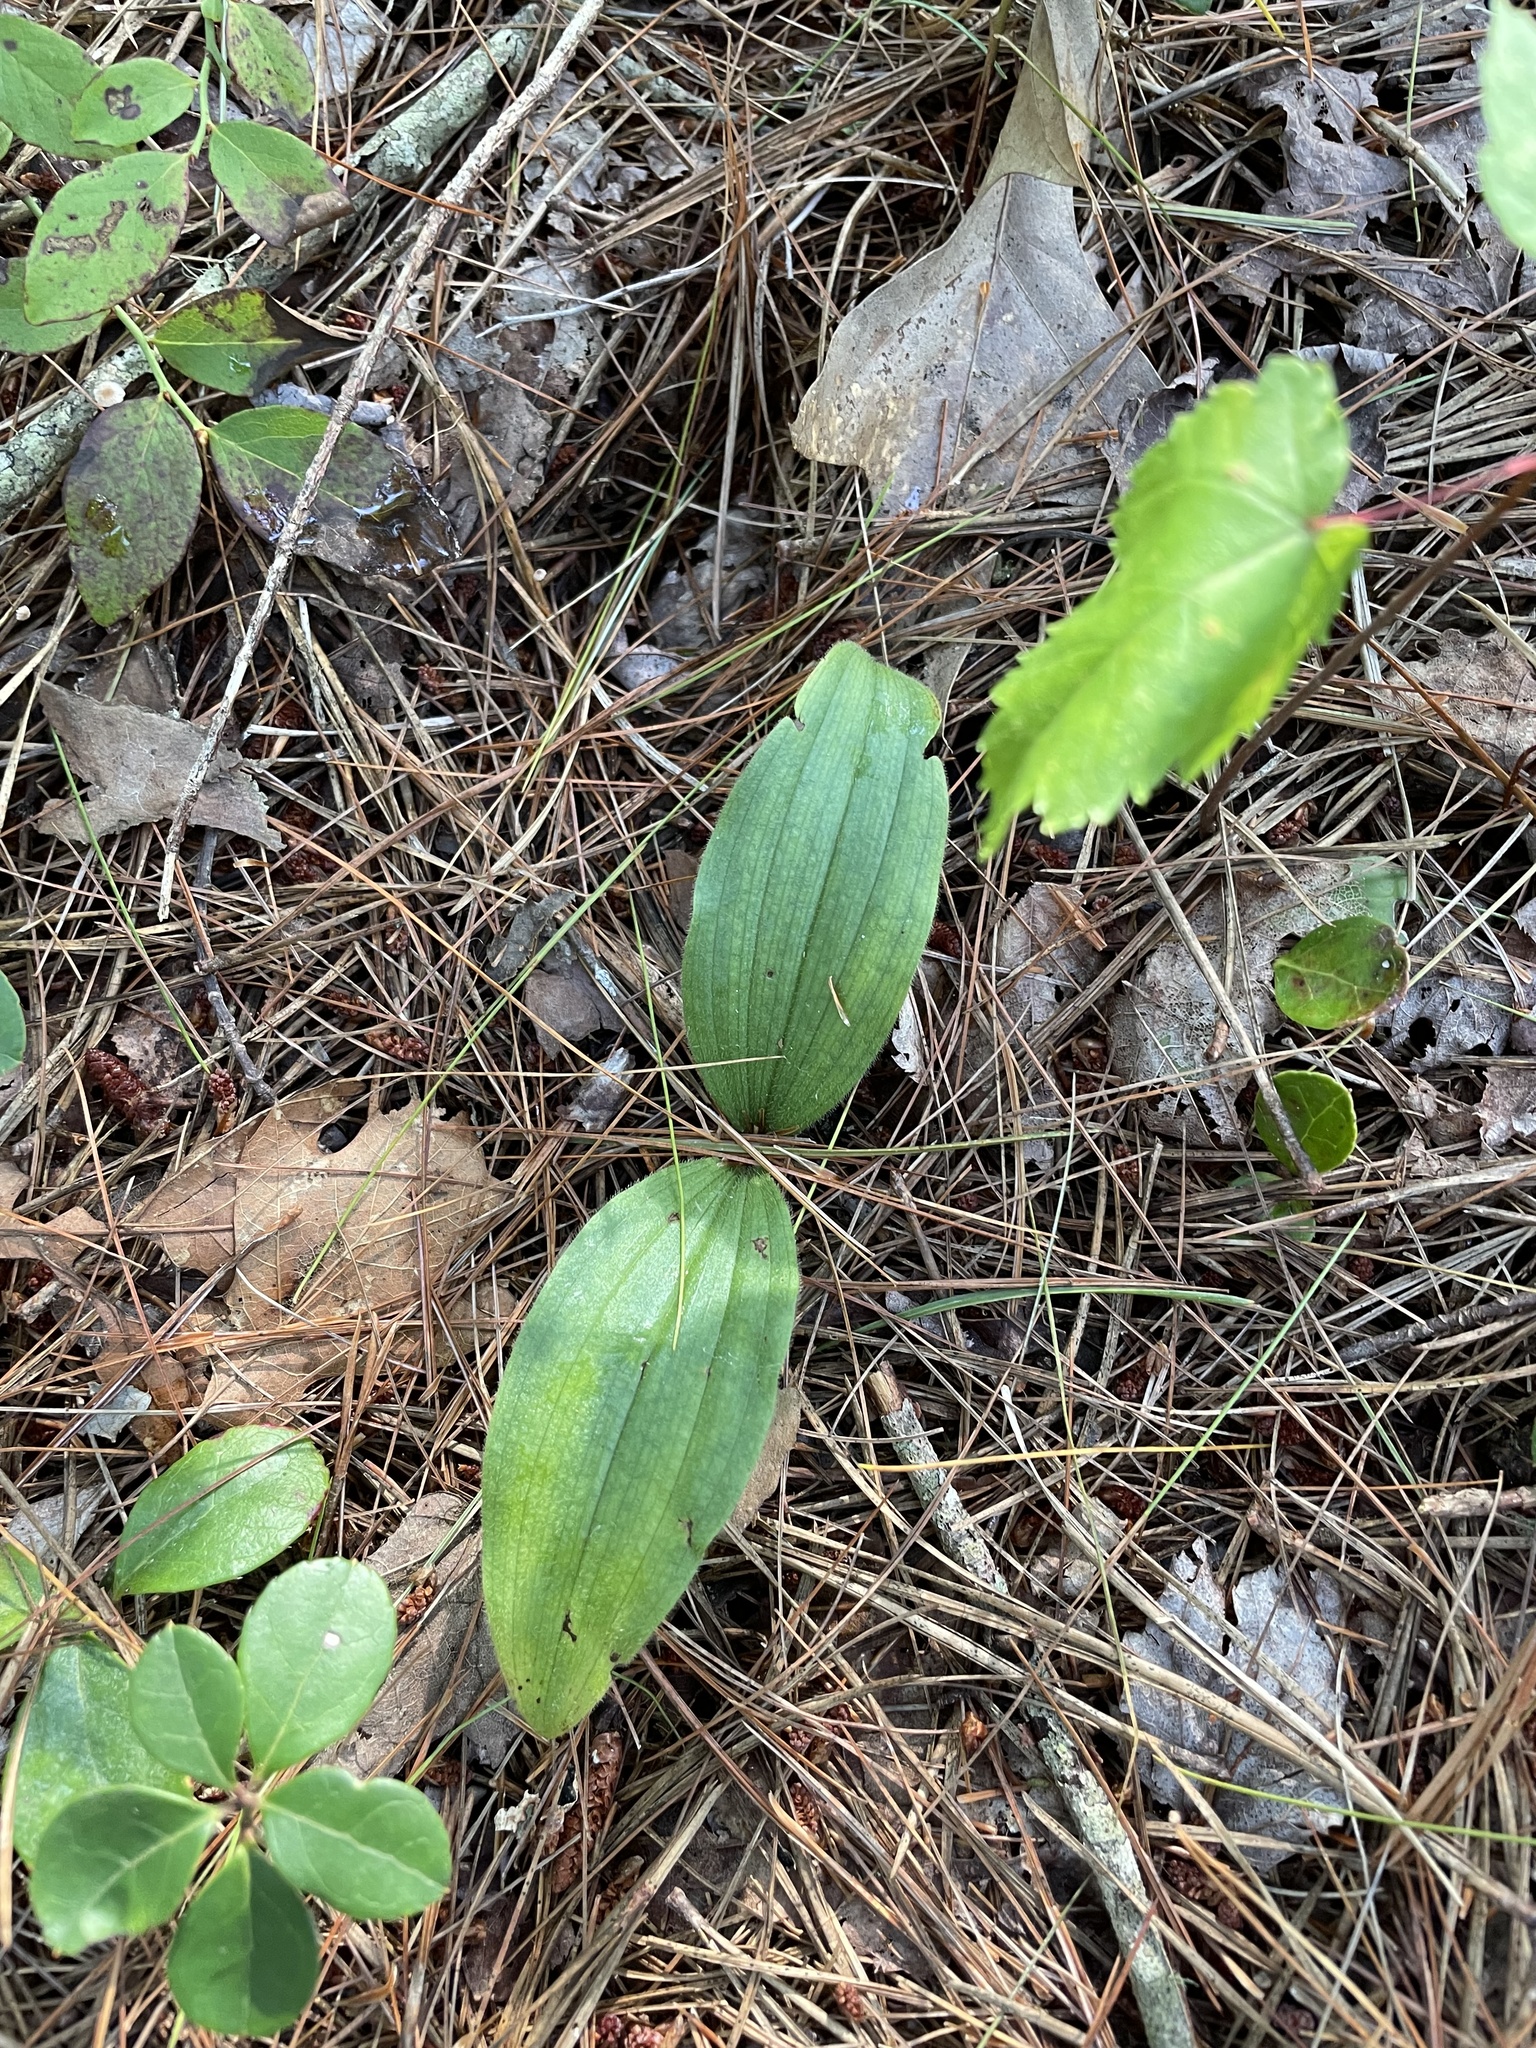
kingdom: Plantae
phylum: Tracheophyta
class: Liliopsida
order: Asparagales
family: Orchidaceae
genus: Cypripedium
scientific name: Cypripedium acaule
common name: Pink lady's-slipper
